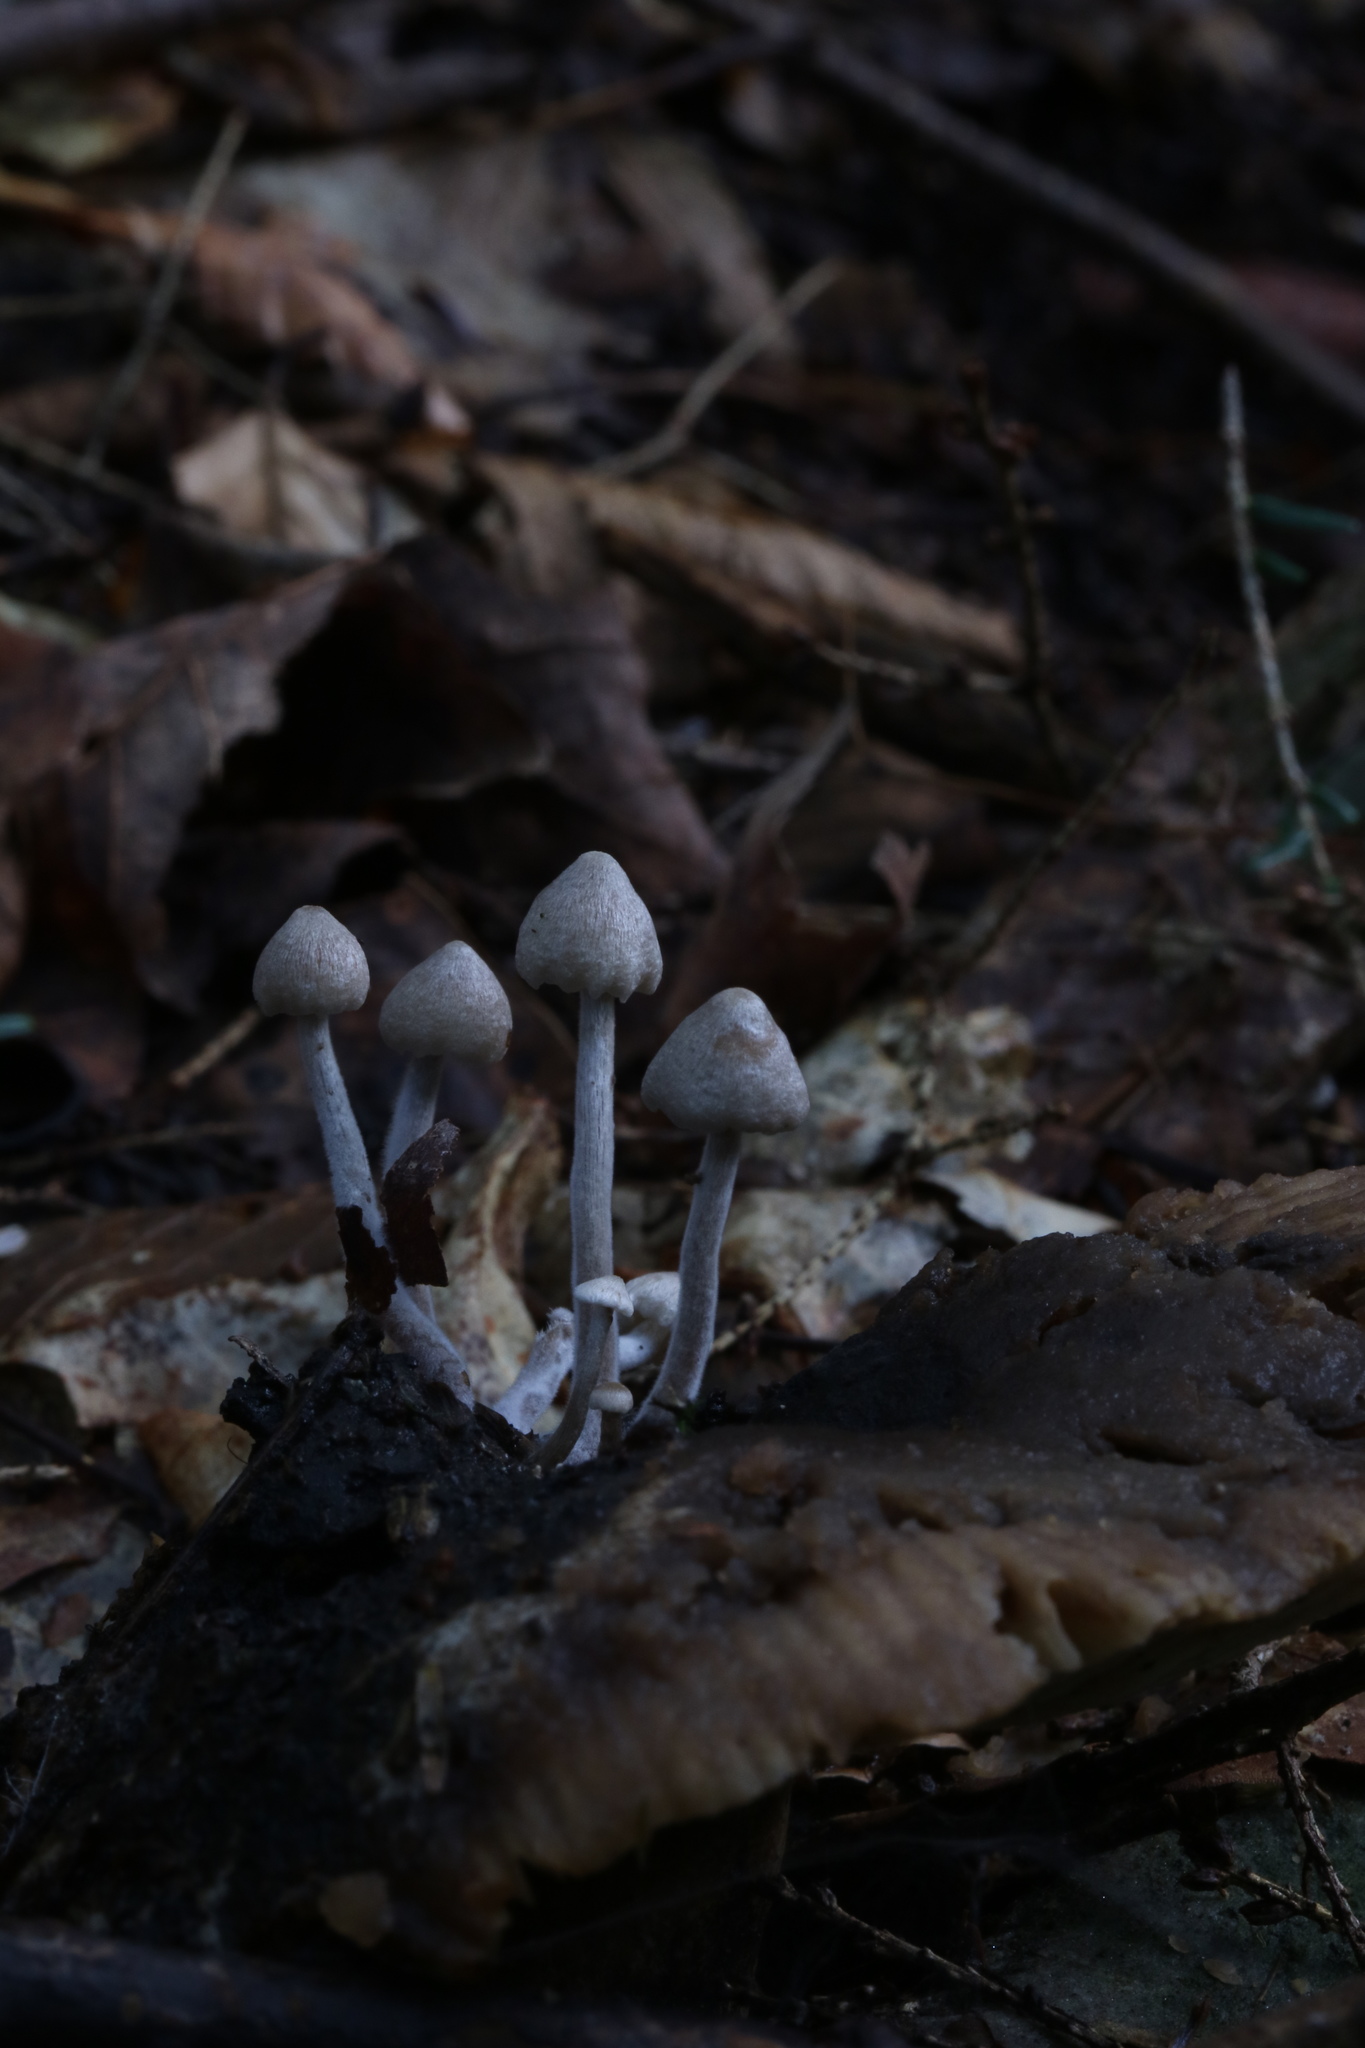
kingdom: Fungi
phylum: Basidiomycota
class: Agaricomycetes
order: Agaricales
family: Lyophyllaceae
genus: Asterophora
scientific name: Asterophora parasitica
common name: Silky piggyback
